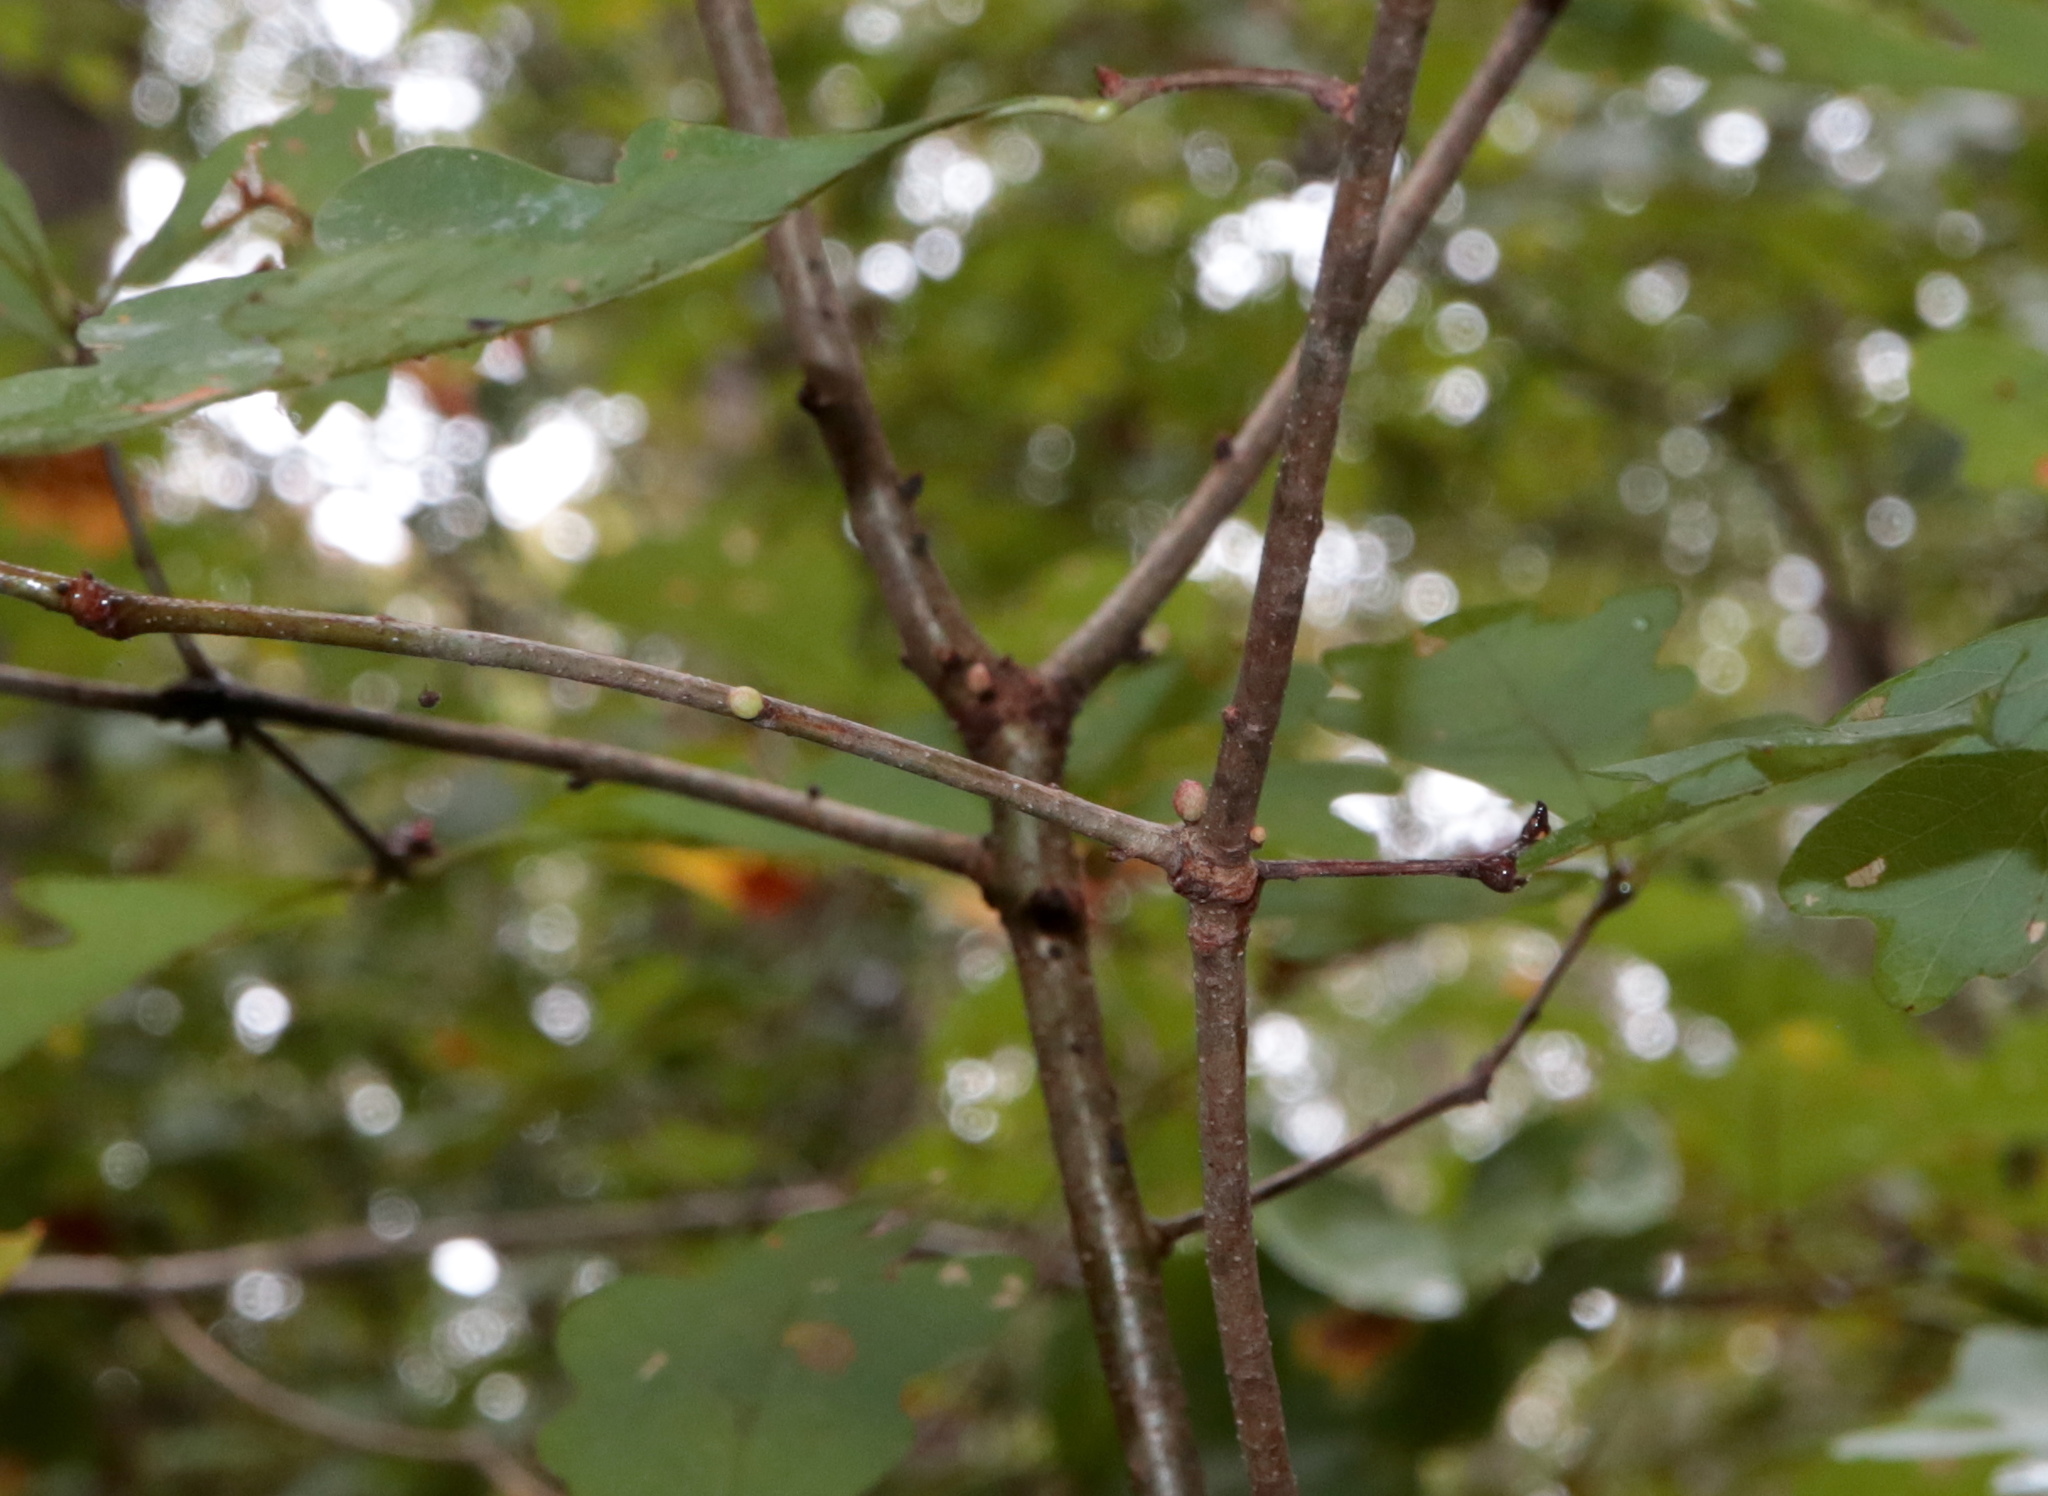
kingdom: Animalia
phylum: Arthropoda
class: Insecta
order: Hymenoptera
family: Cynipidae
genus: Andricus
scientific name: Andricus
